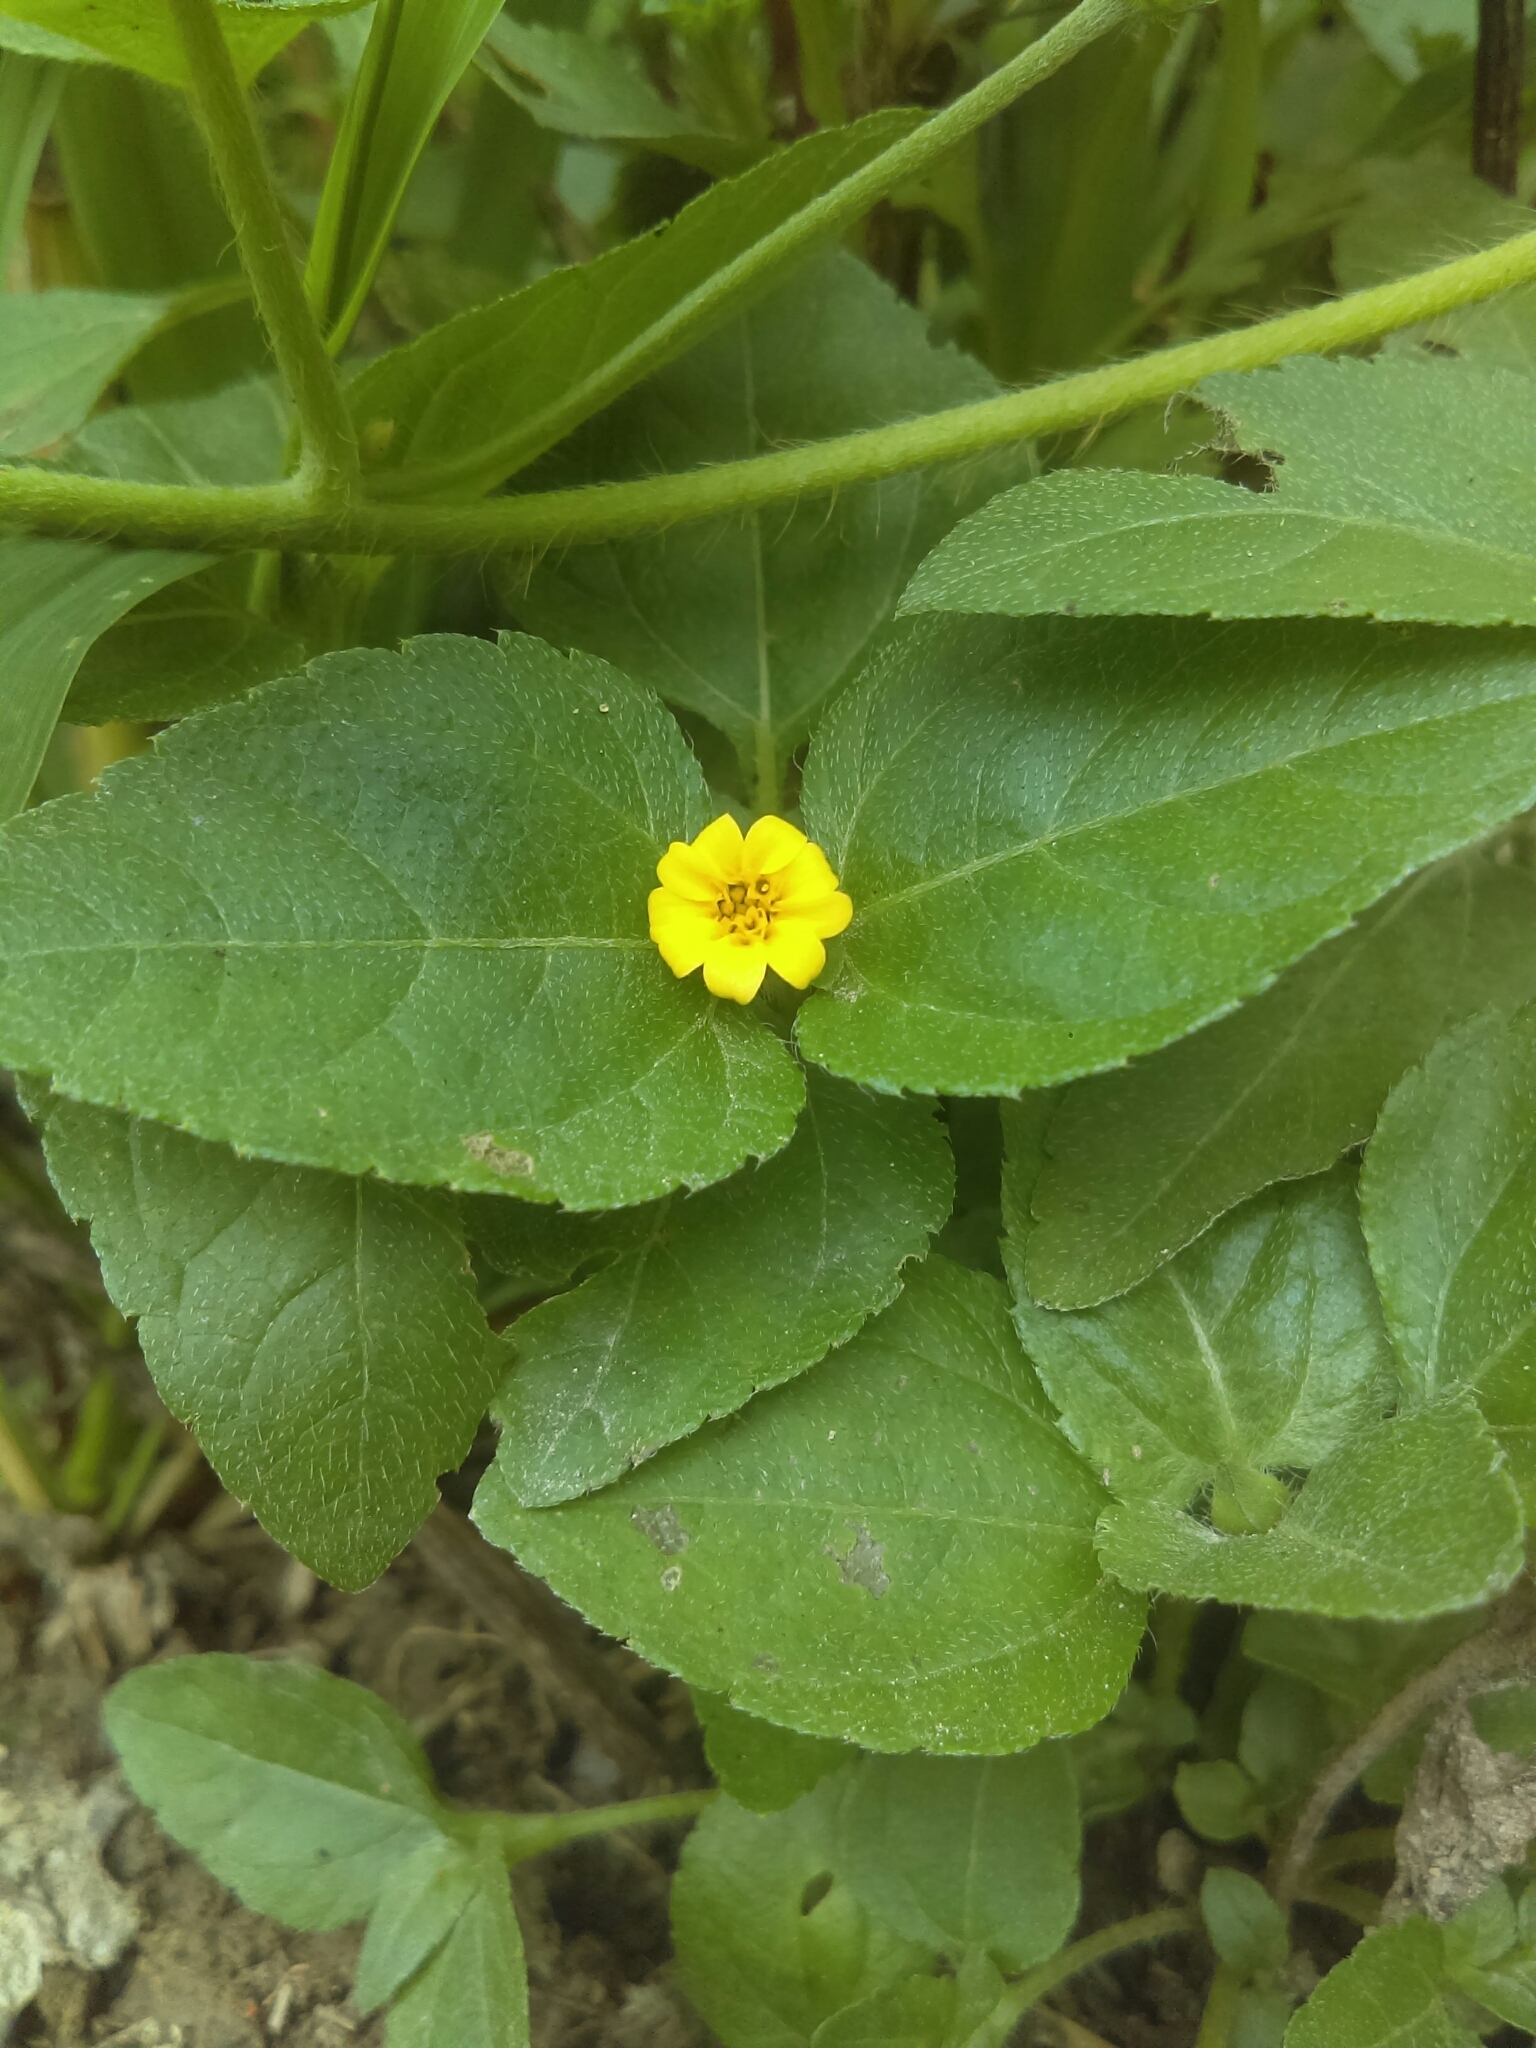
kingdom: Plantae
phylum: Tracheophyta
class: Magnoliopsida
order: Asterales
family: Asteraceae
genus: Calyptocarpus
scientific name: Calyptocarpus vialis
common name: Straggler daisy
